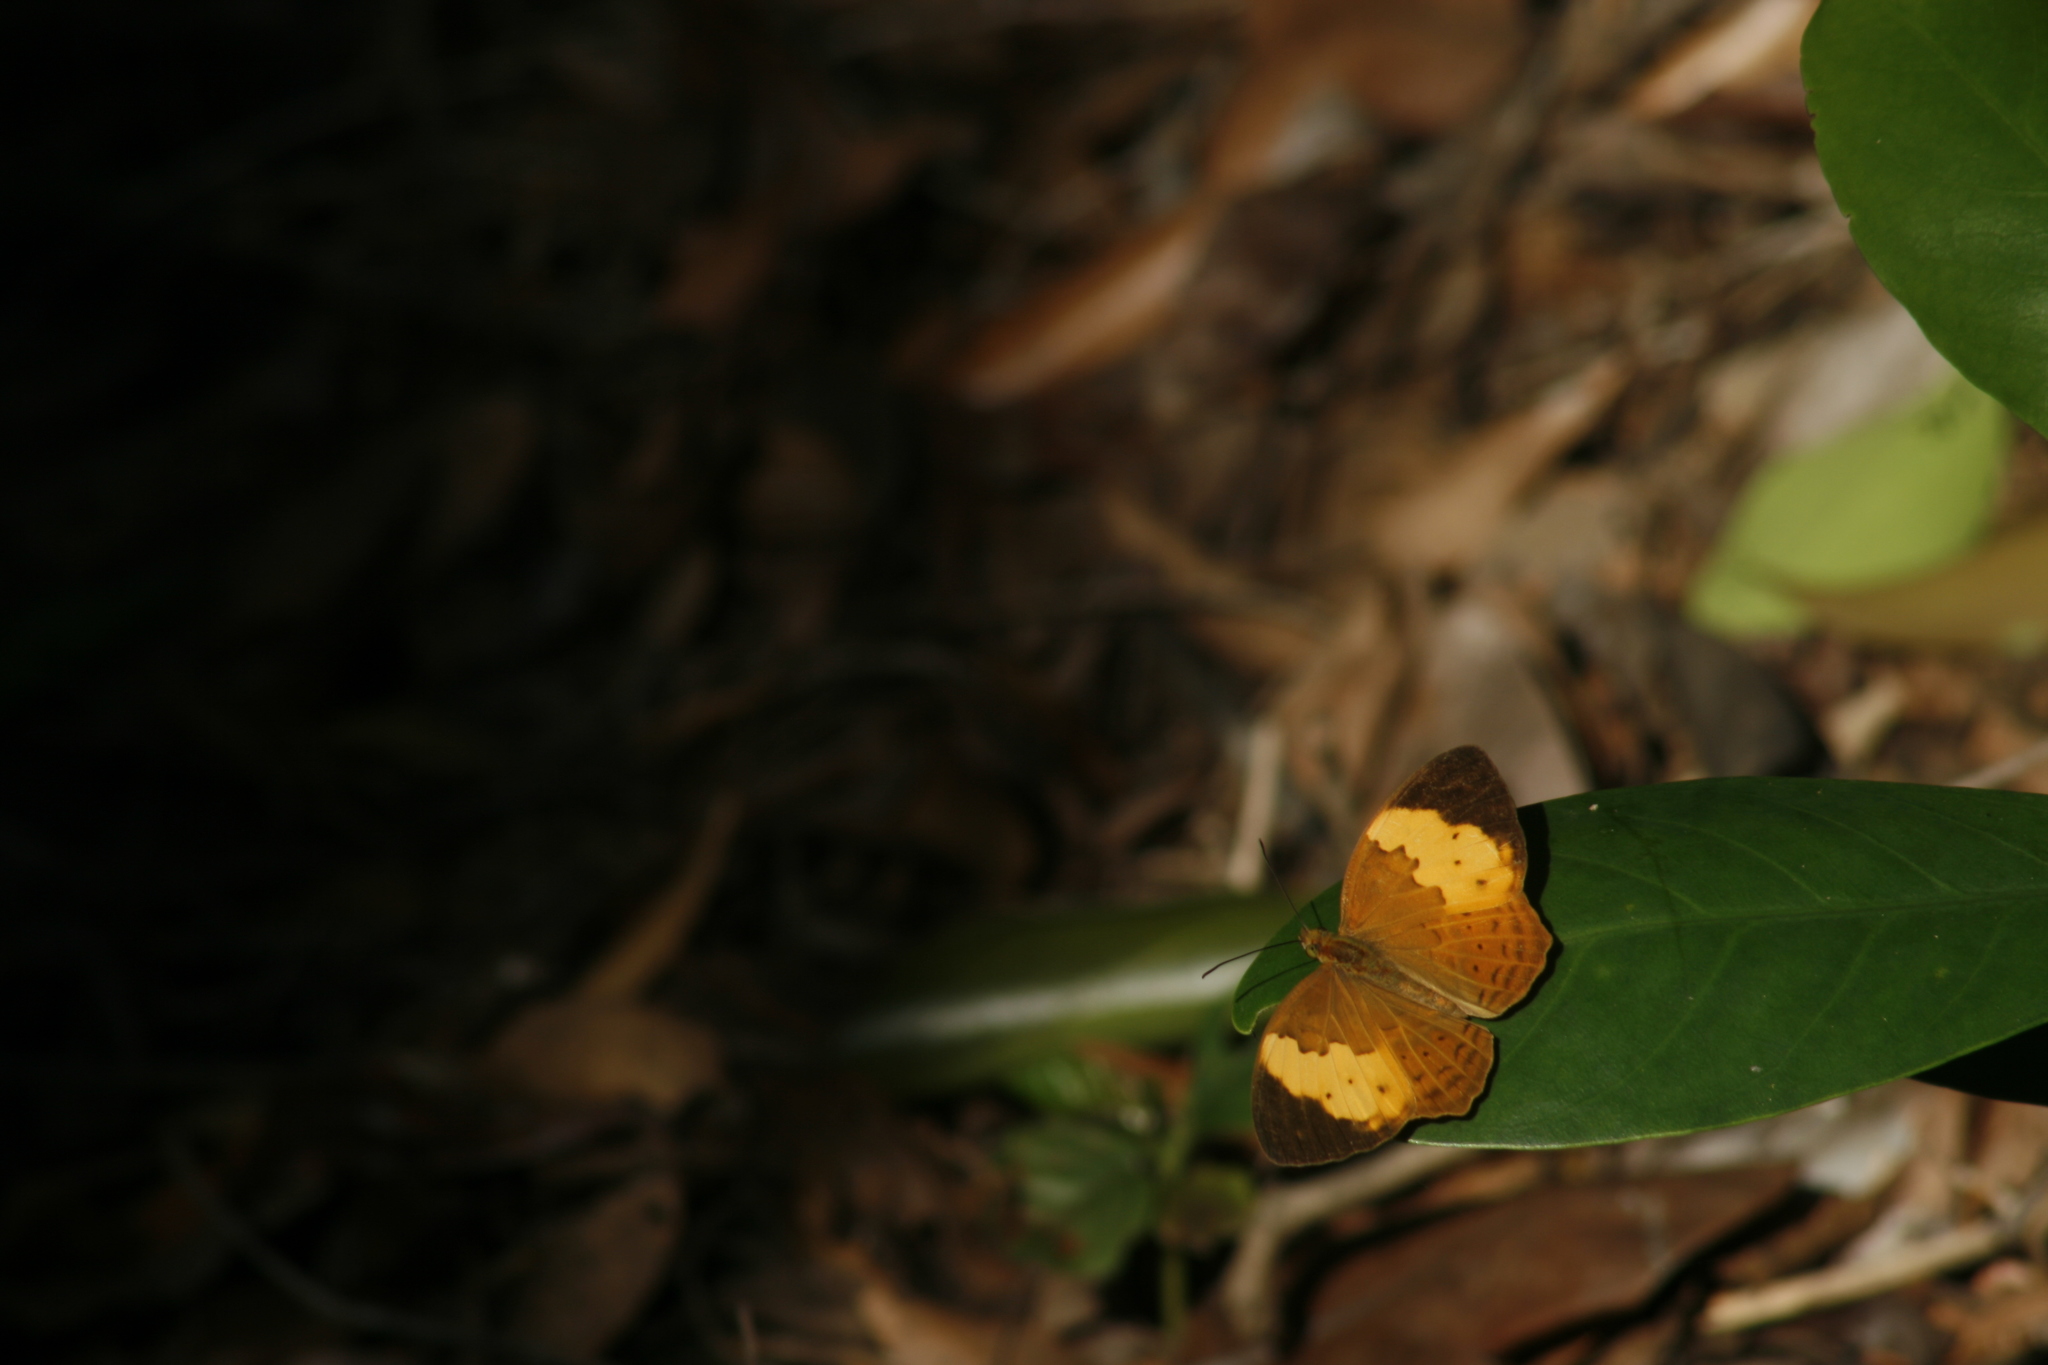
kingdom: Animalia
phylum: Arthropoda
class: Insecta
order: Lepidoptera
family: Nymphalidae
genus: Cupha
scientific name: Cupha erymanthis
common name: Rustic
